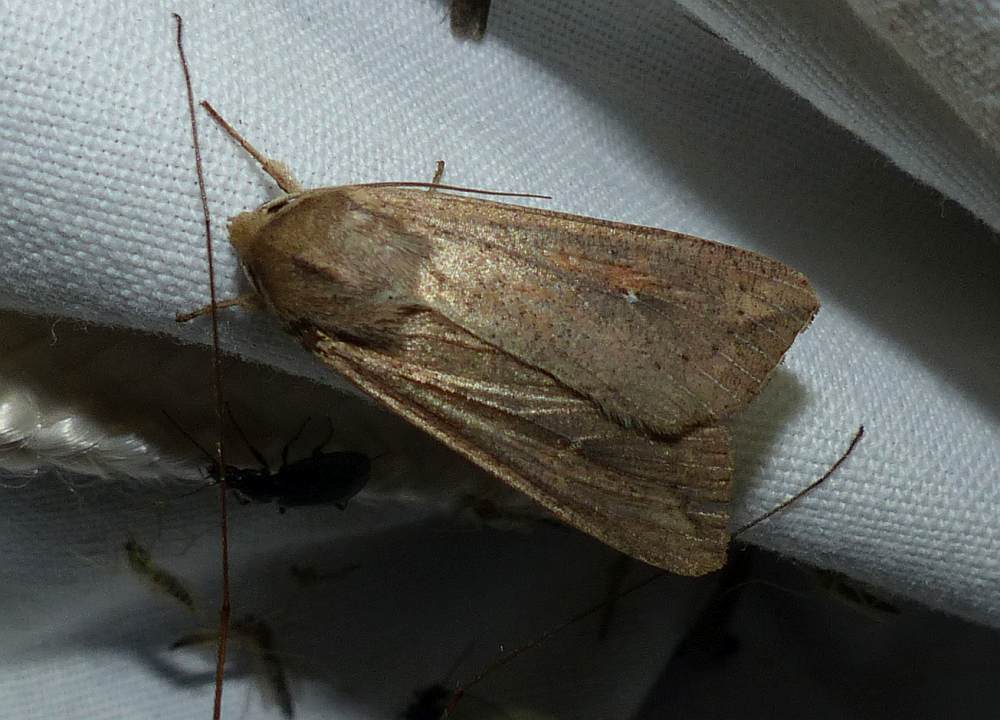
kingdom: Animalia
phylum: Arthropoda
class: Insecta
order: Lepidoptera
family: Noctuidae
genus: Mythimna
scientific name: Mythimna unipuncta
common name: White-speck
